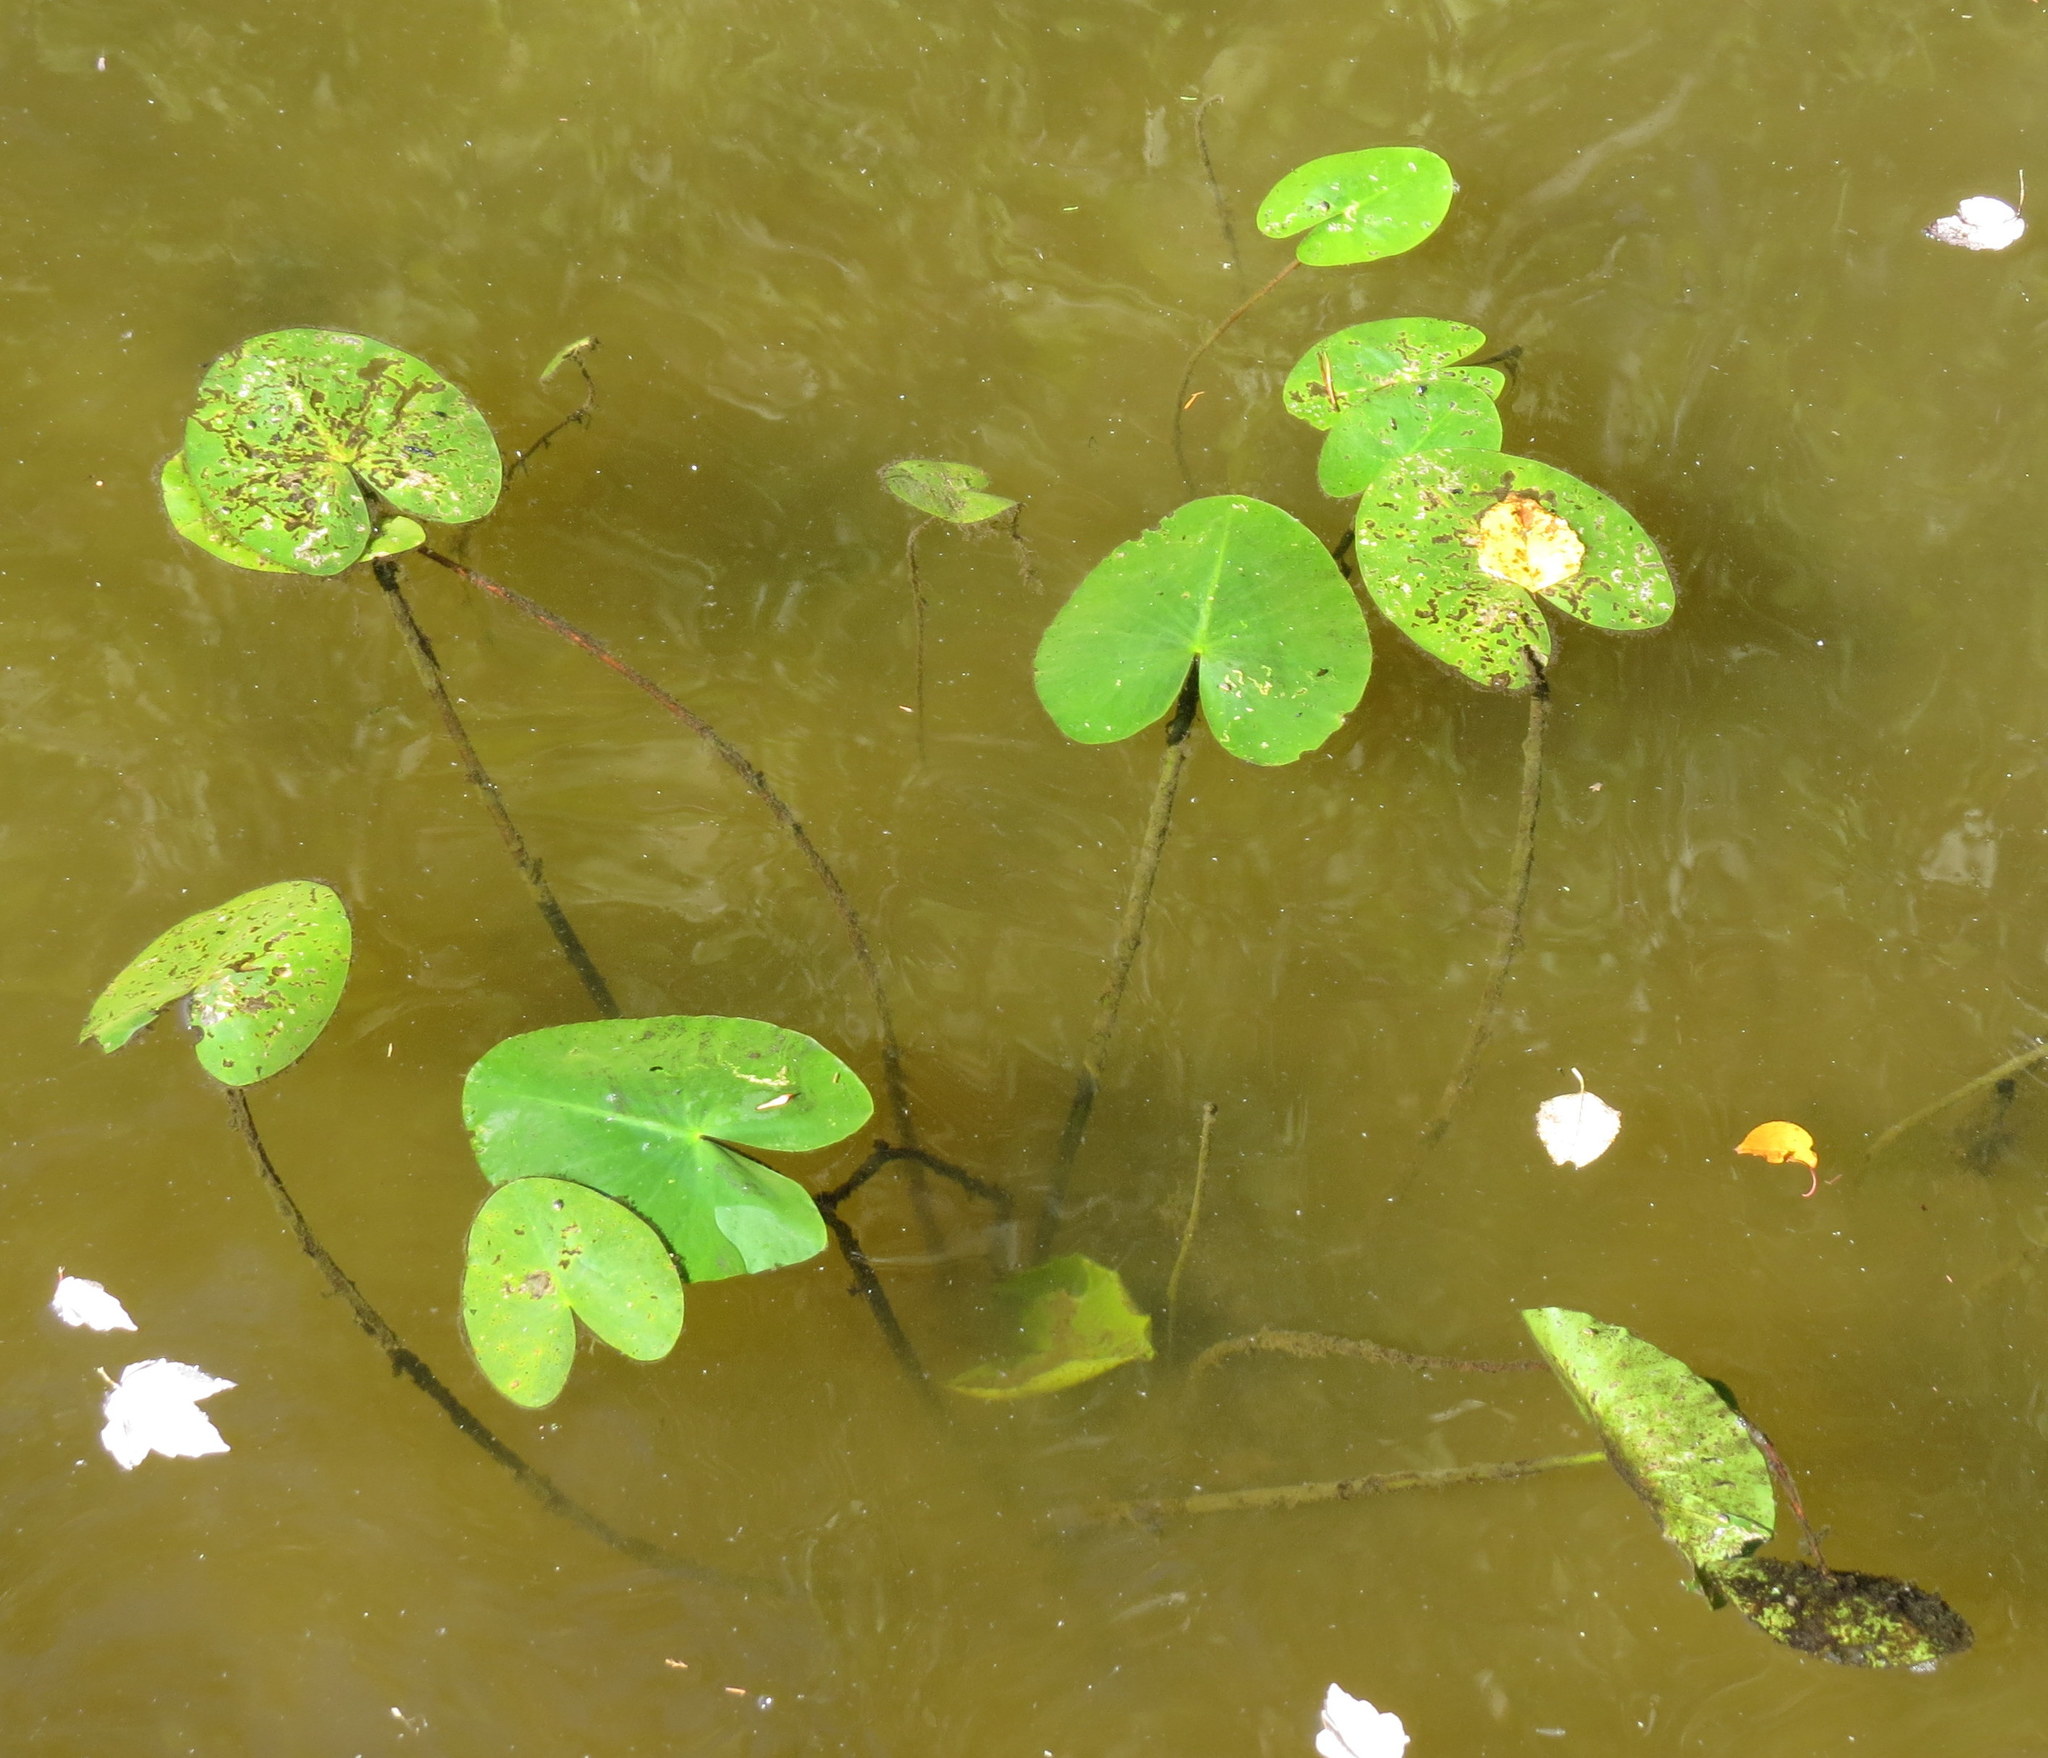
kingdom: Plantae
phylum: Tracheophyta
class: Magnoliopsida
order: Nymphaeales
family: Nymphaeaceae
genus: Nuphar
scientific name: Nuphar advena
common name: Spatter-dock
